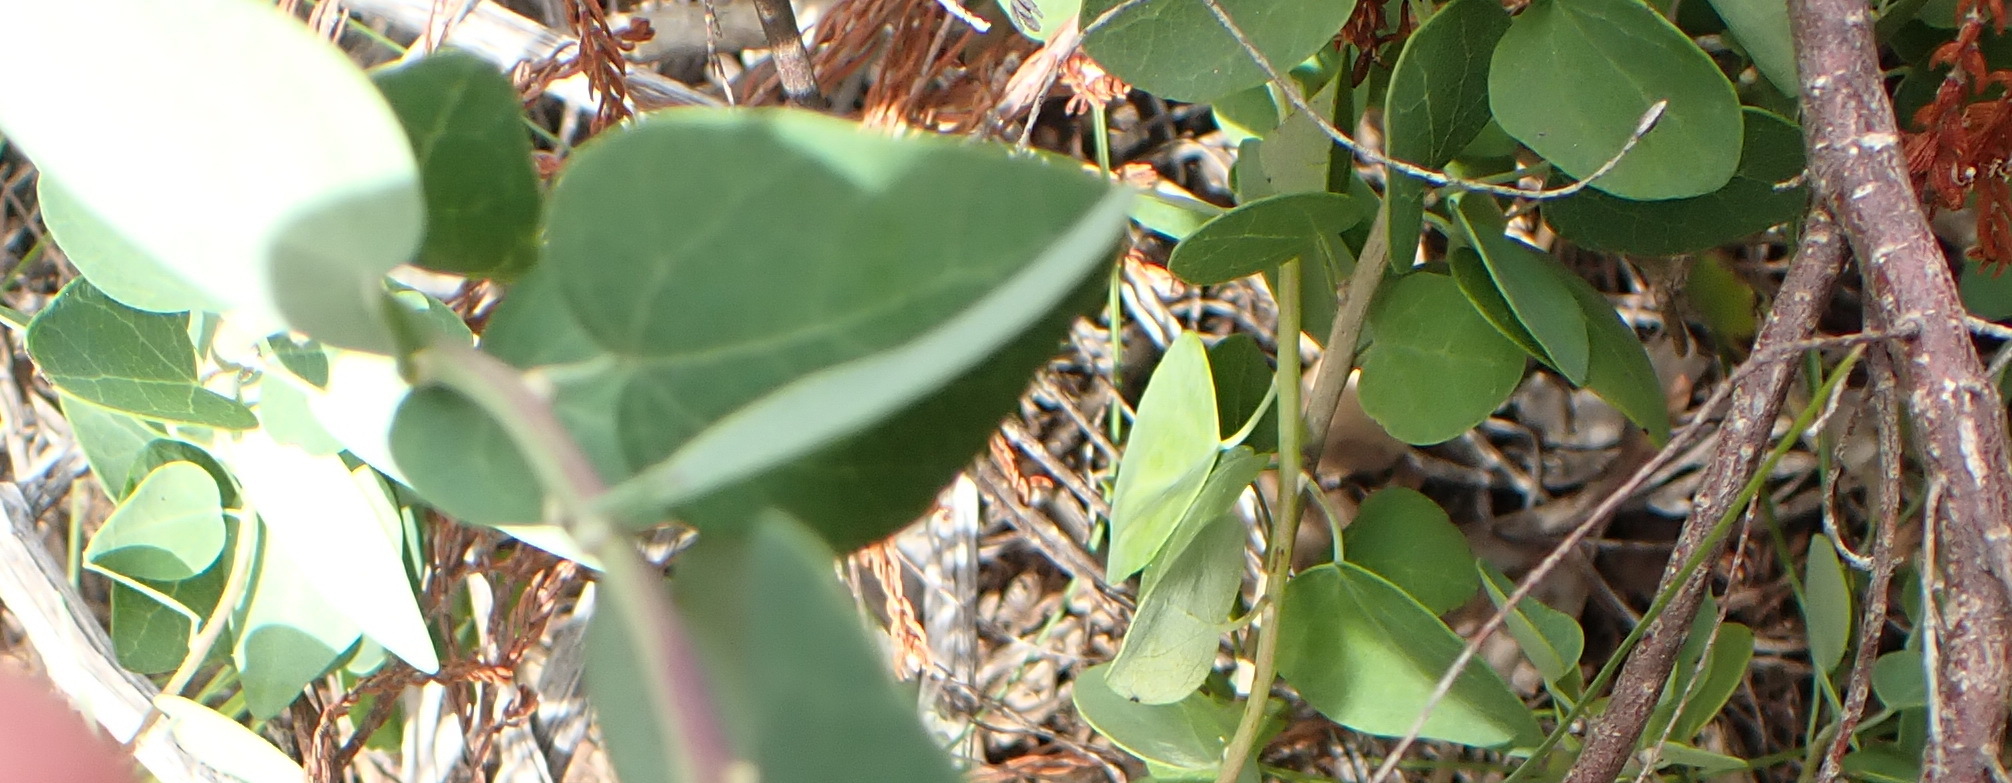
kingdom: Plantae
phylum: Tracheophyta
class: Magnoliopsida
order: Ranunculales
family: Menispermaceae
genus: Cissampelos
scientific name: Cissampelos capensis
